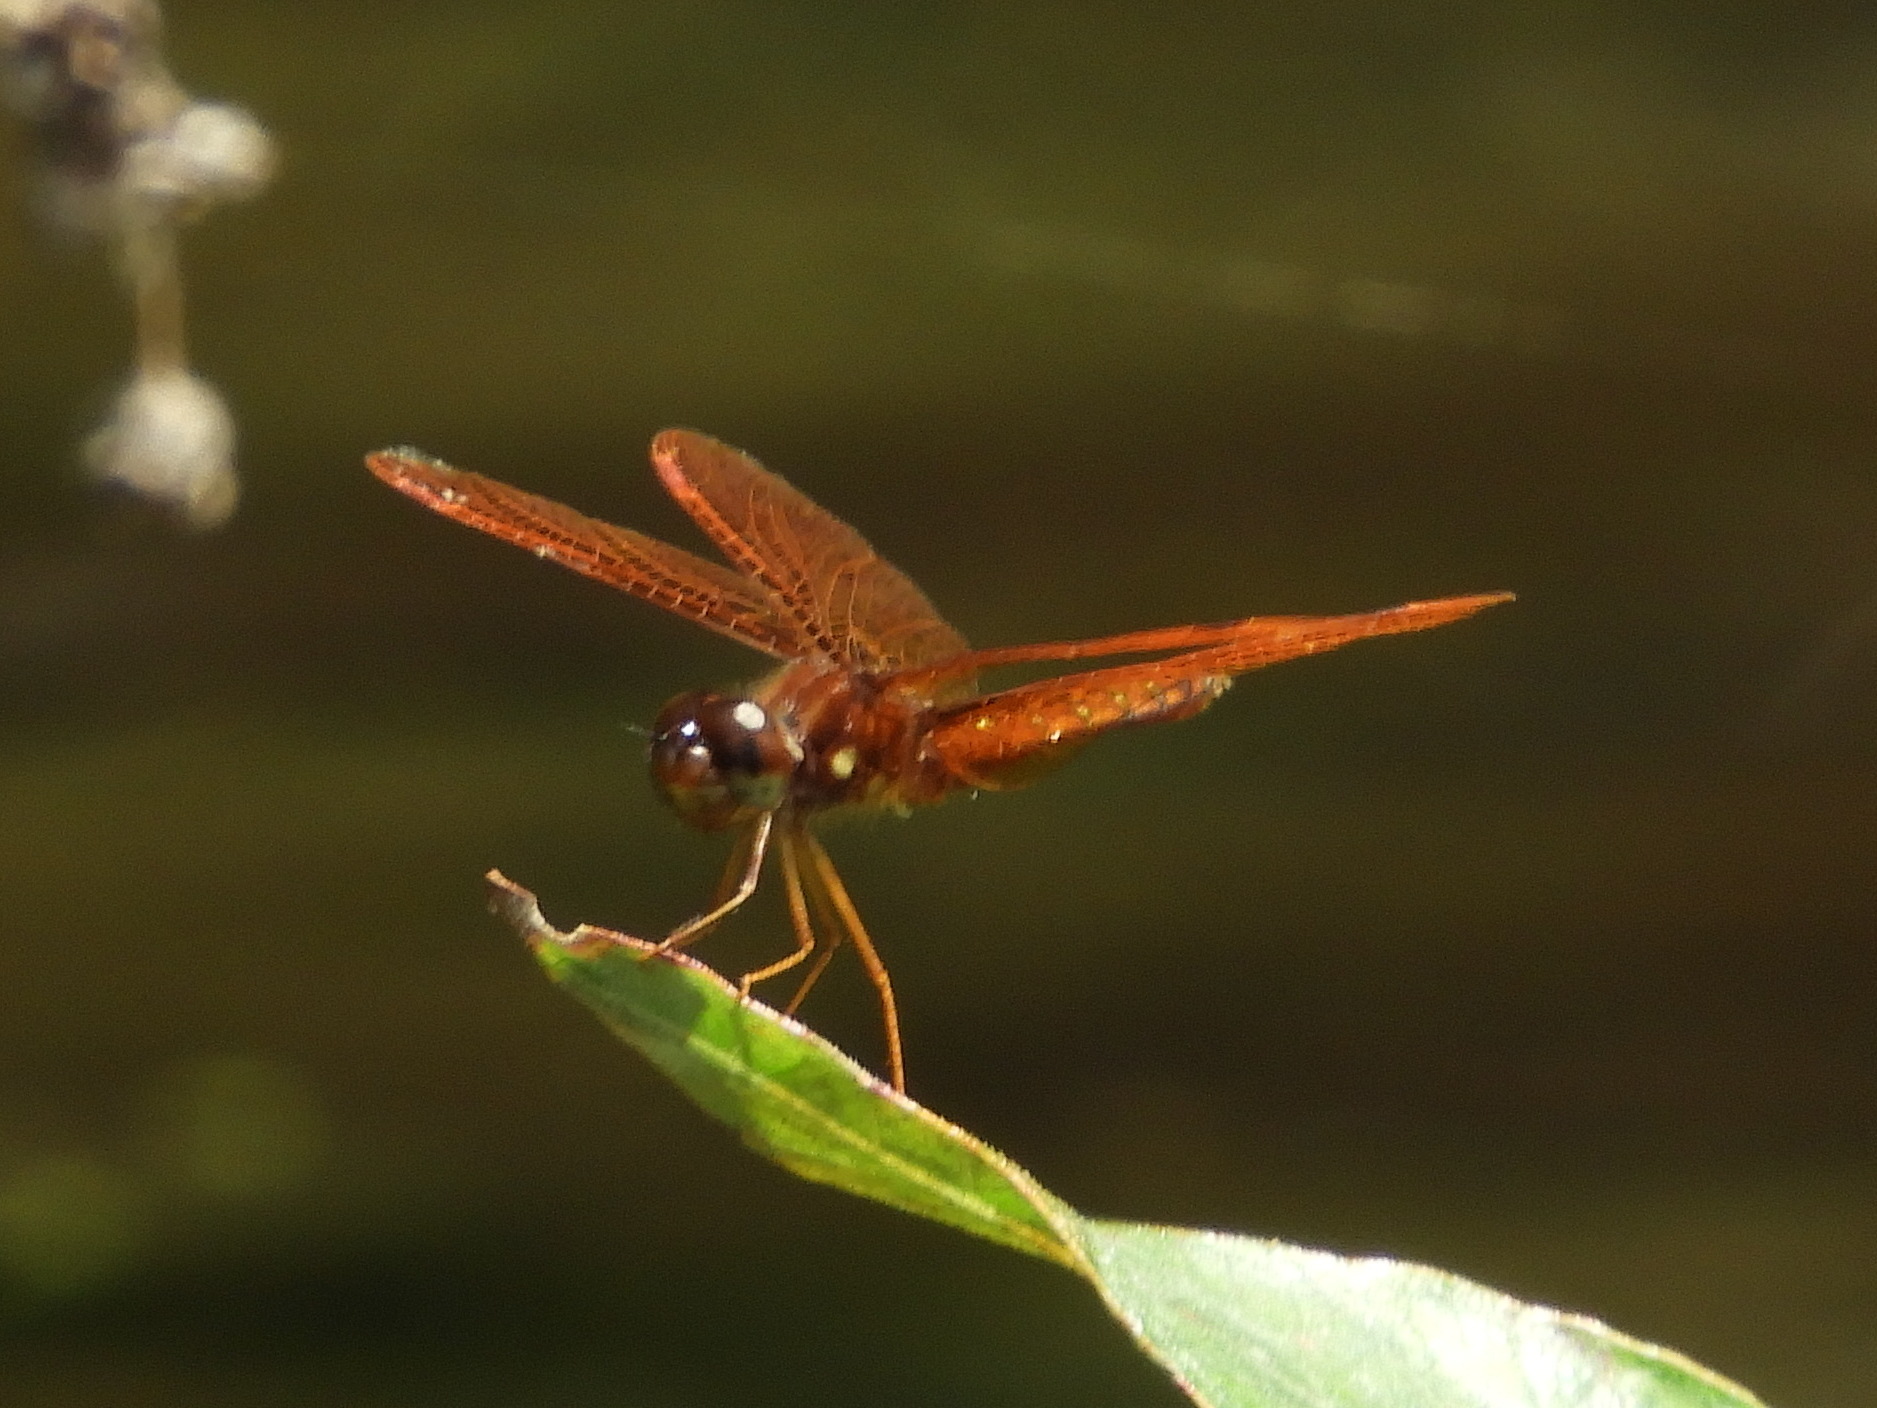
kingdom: Animalia
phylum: Arthropoda
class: Insecta
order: Odonata
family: Libellulidae
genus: Perithemis
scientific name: Perithemis tenera
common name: Eastern amberwing
